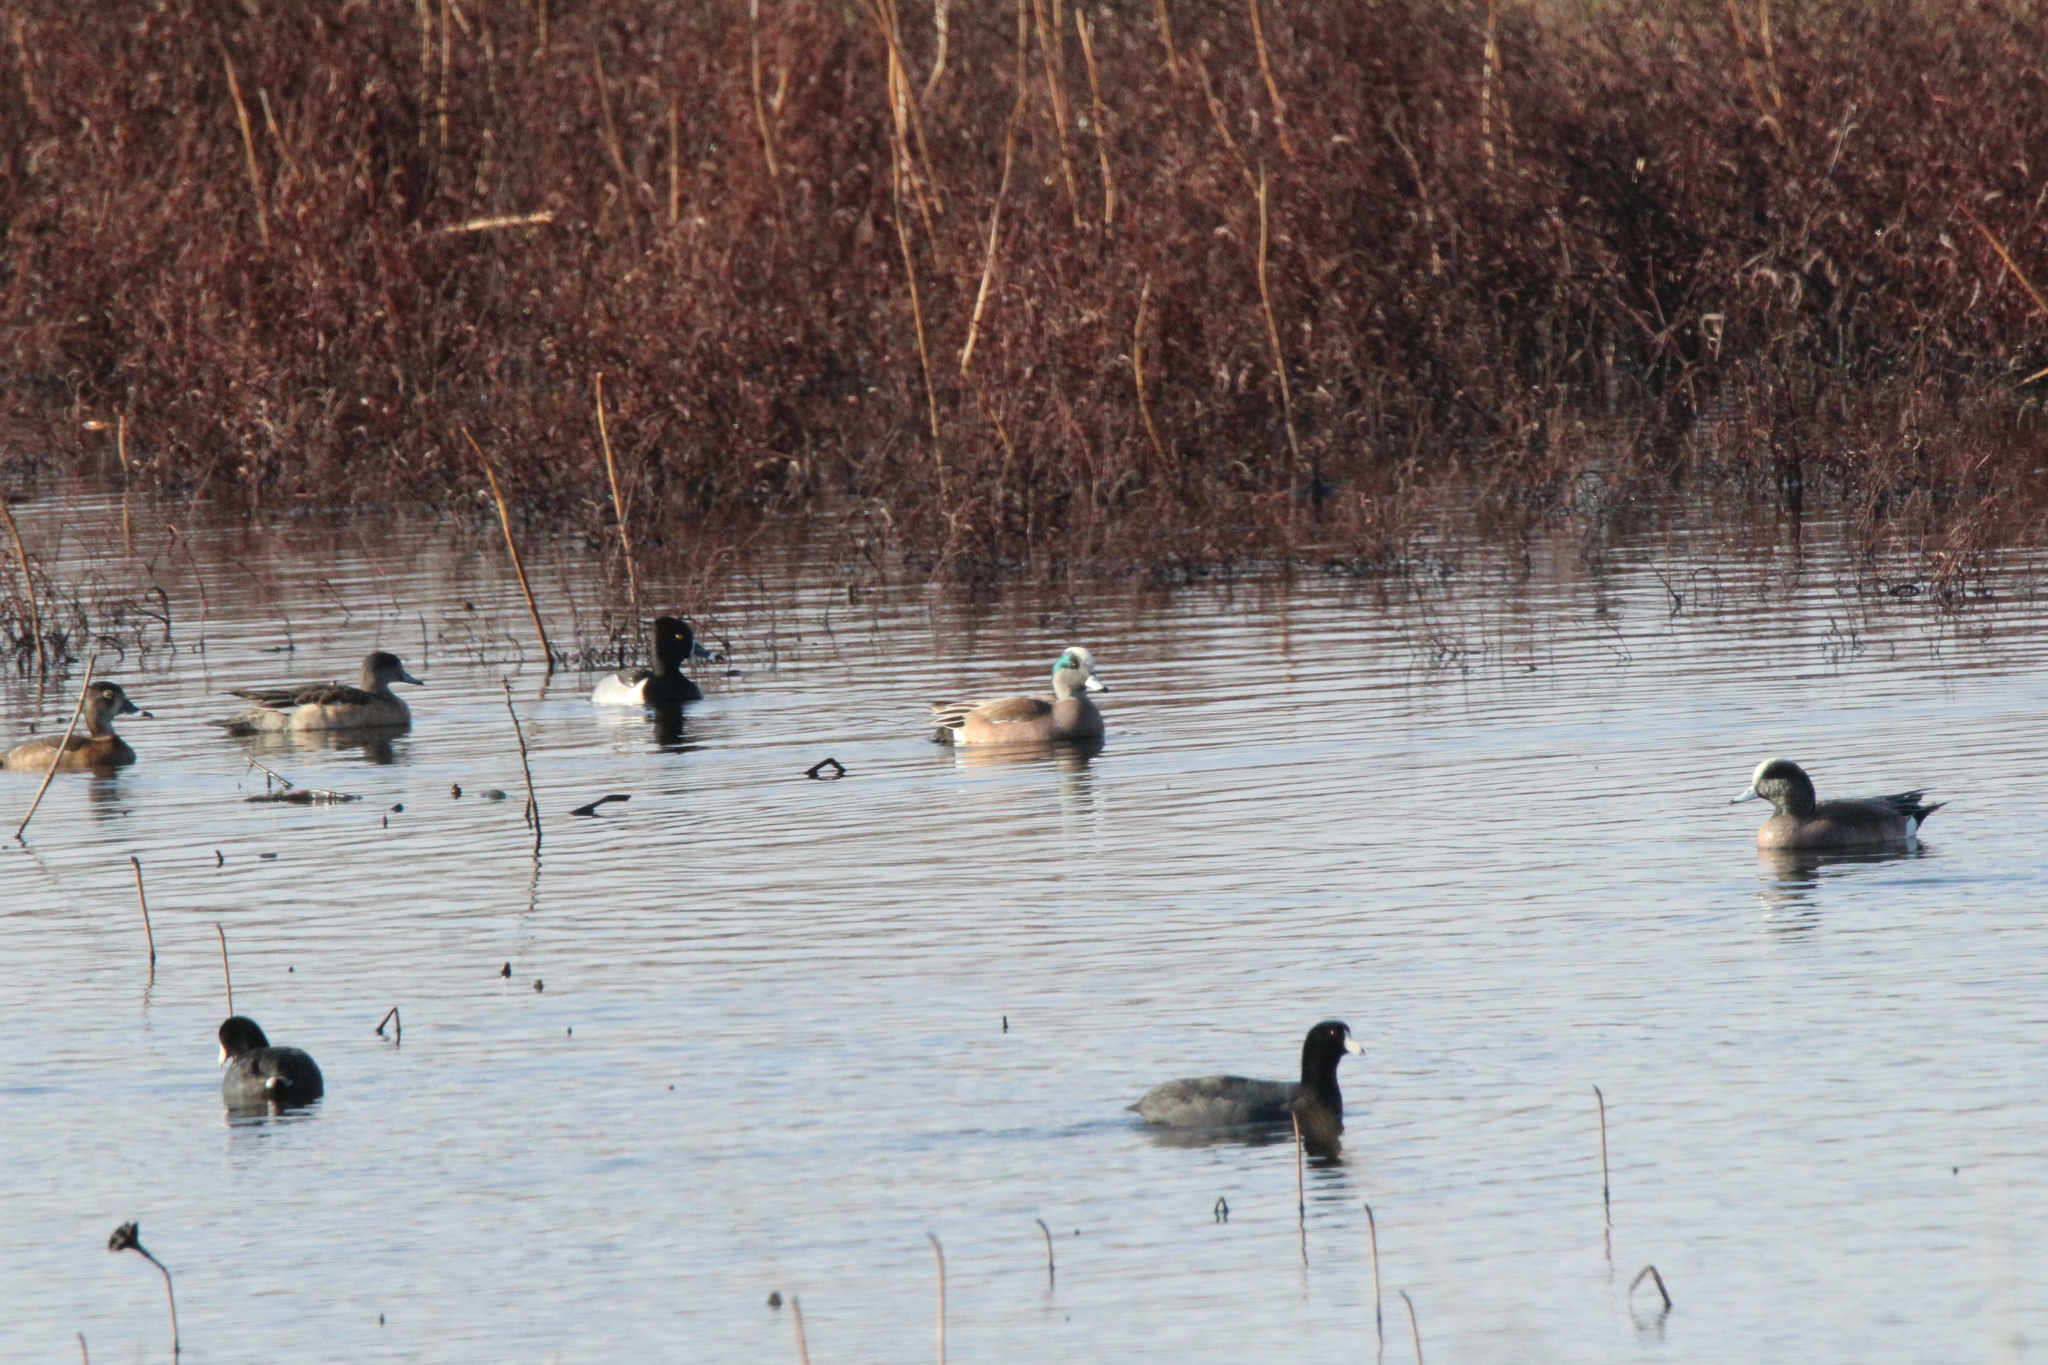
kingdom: Animalia
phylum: Chordata
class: Aves
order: Anseriformes
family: Anatidae
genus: Mareca
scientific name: Mareca americana
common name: American wigeon
